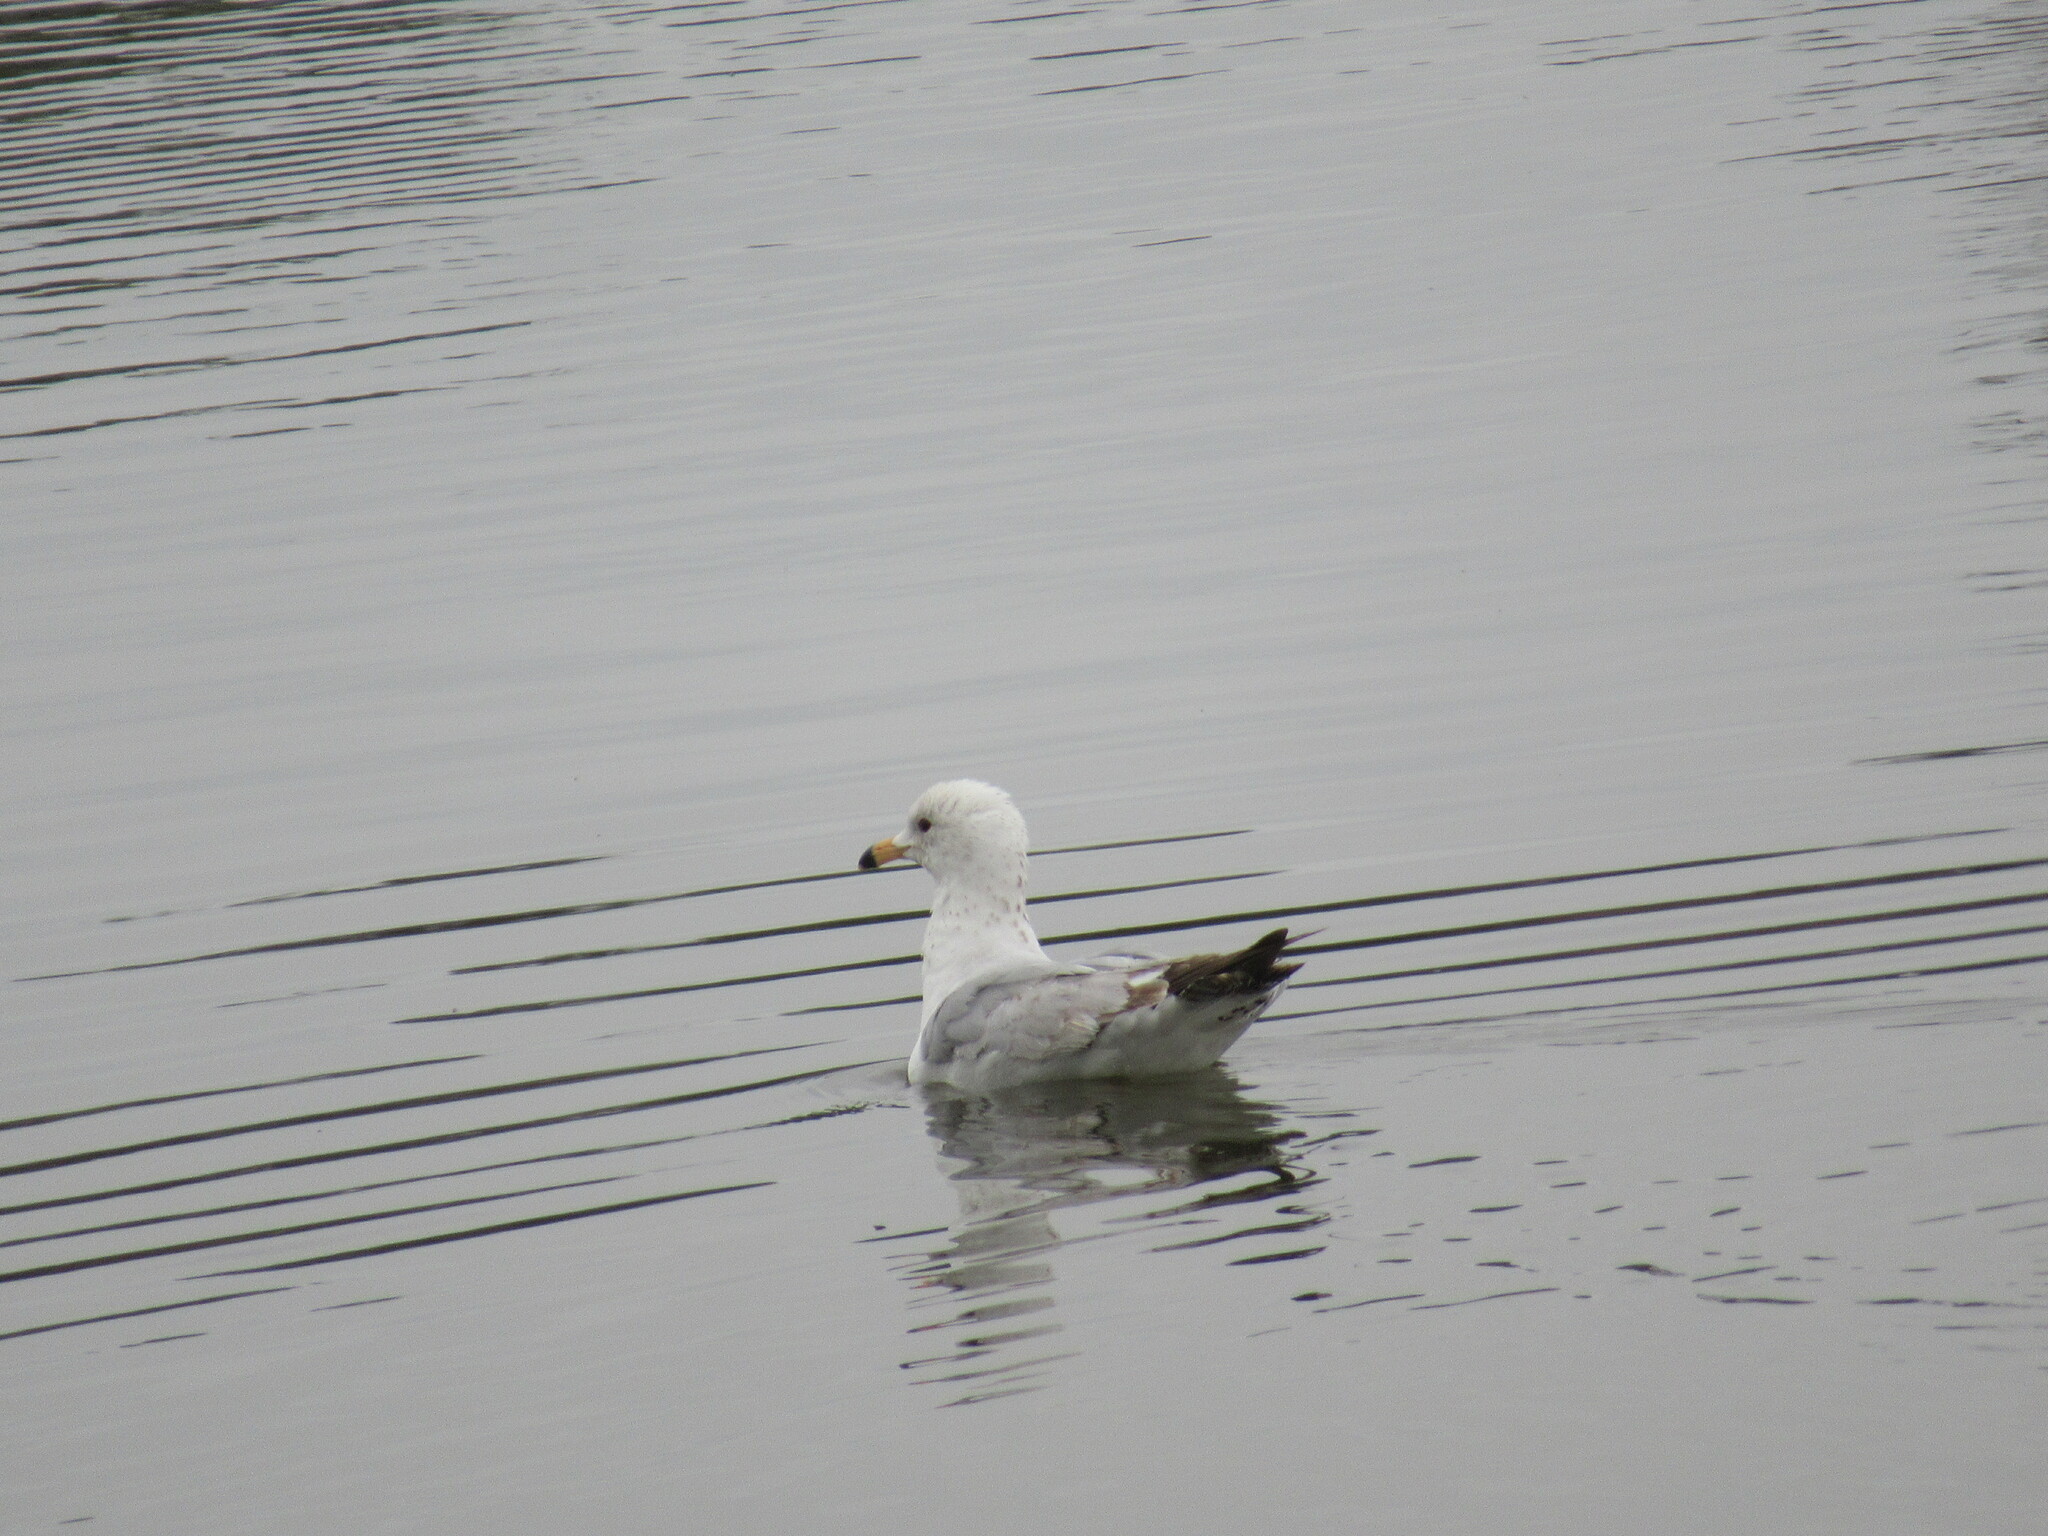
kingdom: Animalia
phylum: Chordata
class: Aves
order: Charadriiformes
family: Laridae
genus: Larus
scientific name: Larus delawarensis
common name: Ring-billed gull
